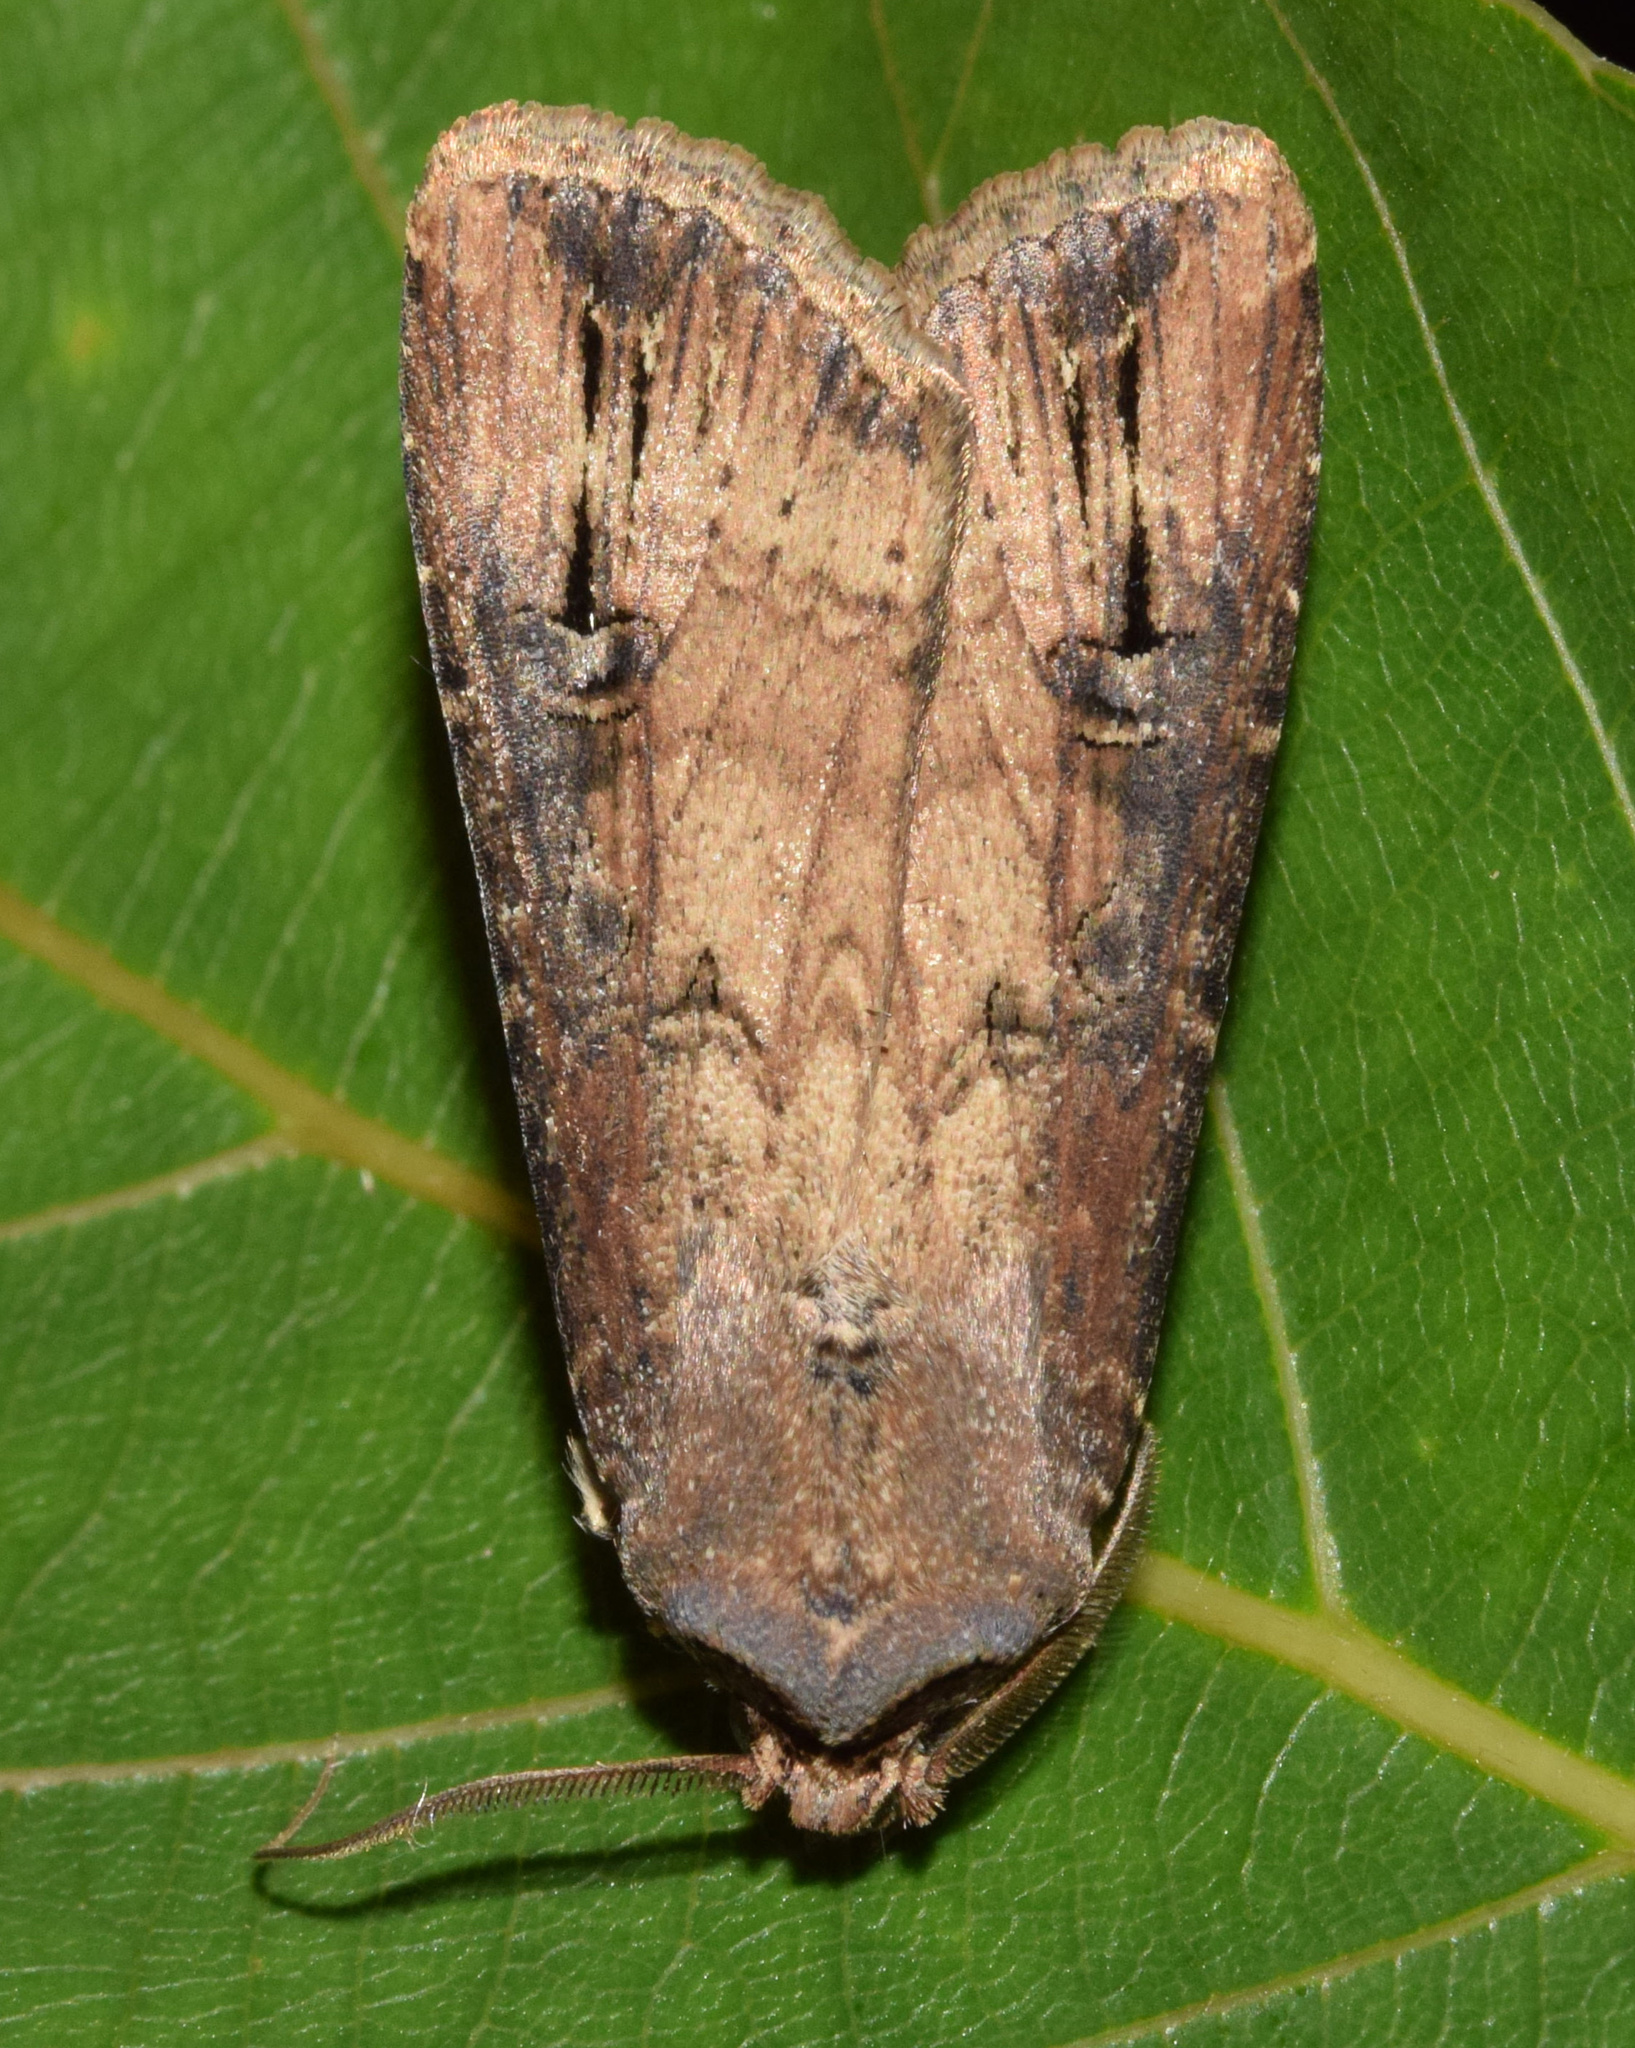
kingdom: Animalia
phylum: Arthropoda
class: Insecta
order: Lepidoptera
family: Noctuidae
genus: Agrotis
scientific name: Agrotis ipsilon
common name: Dark sword-grass
